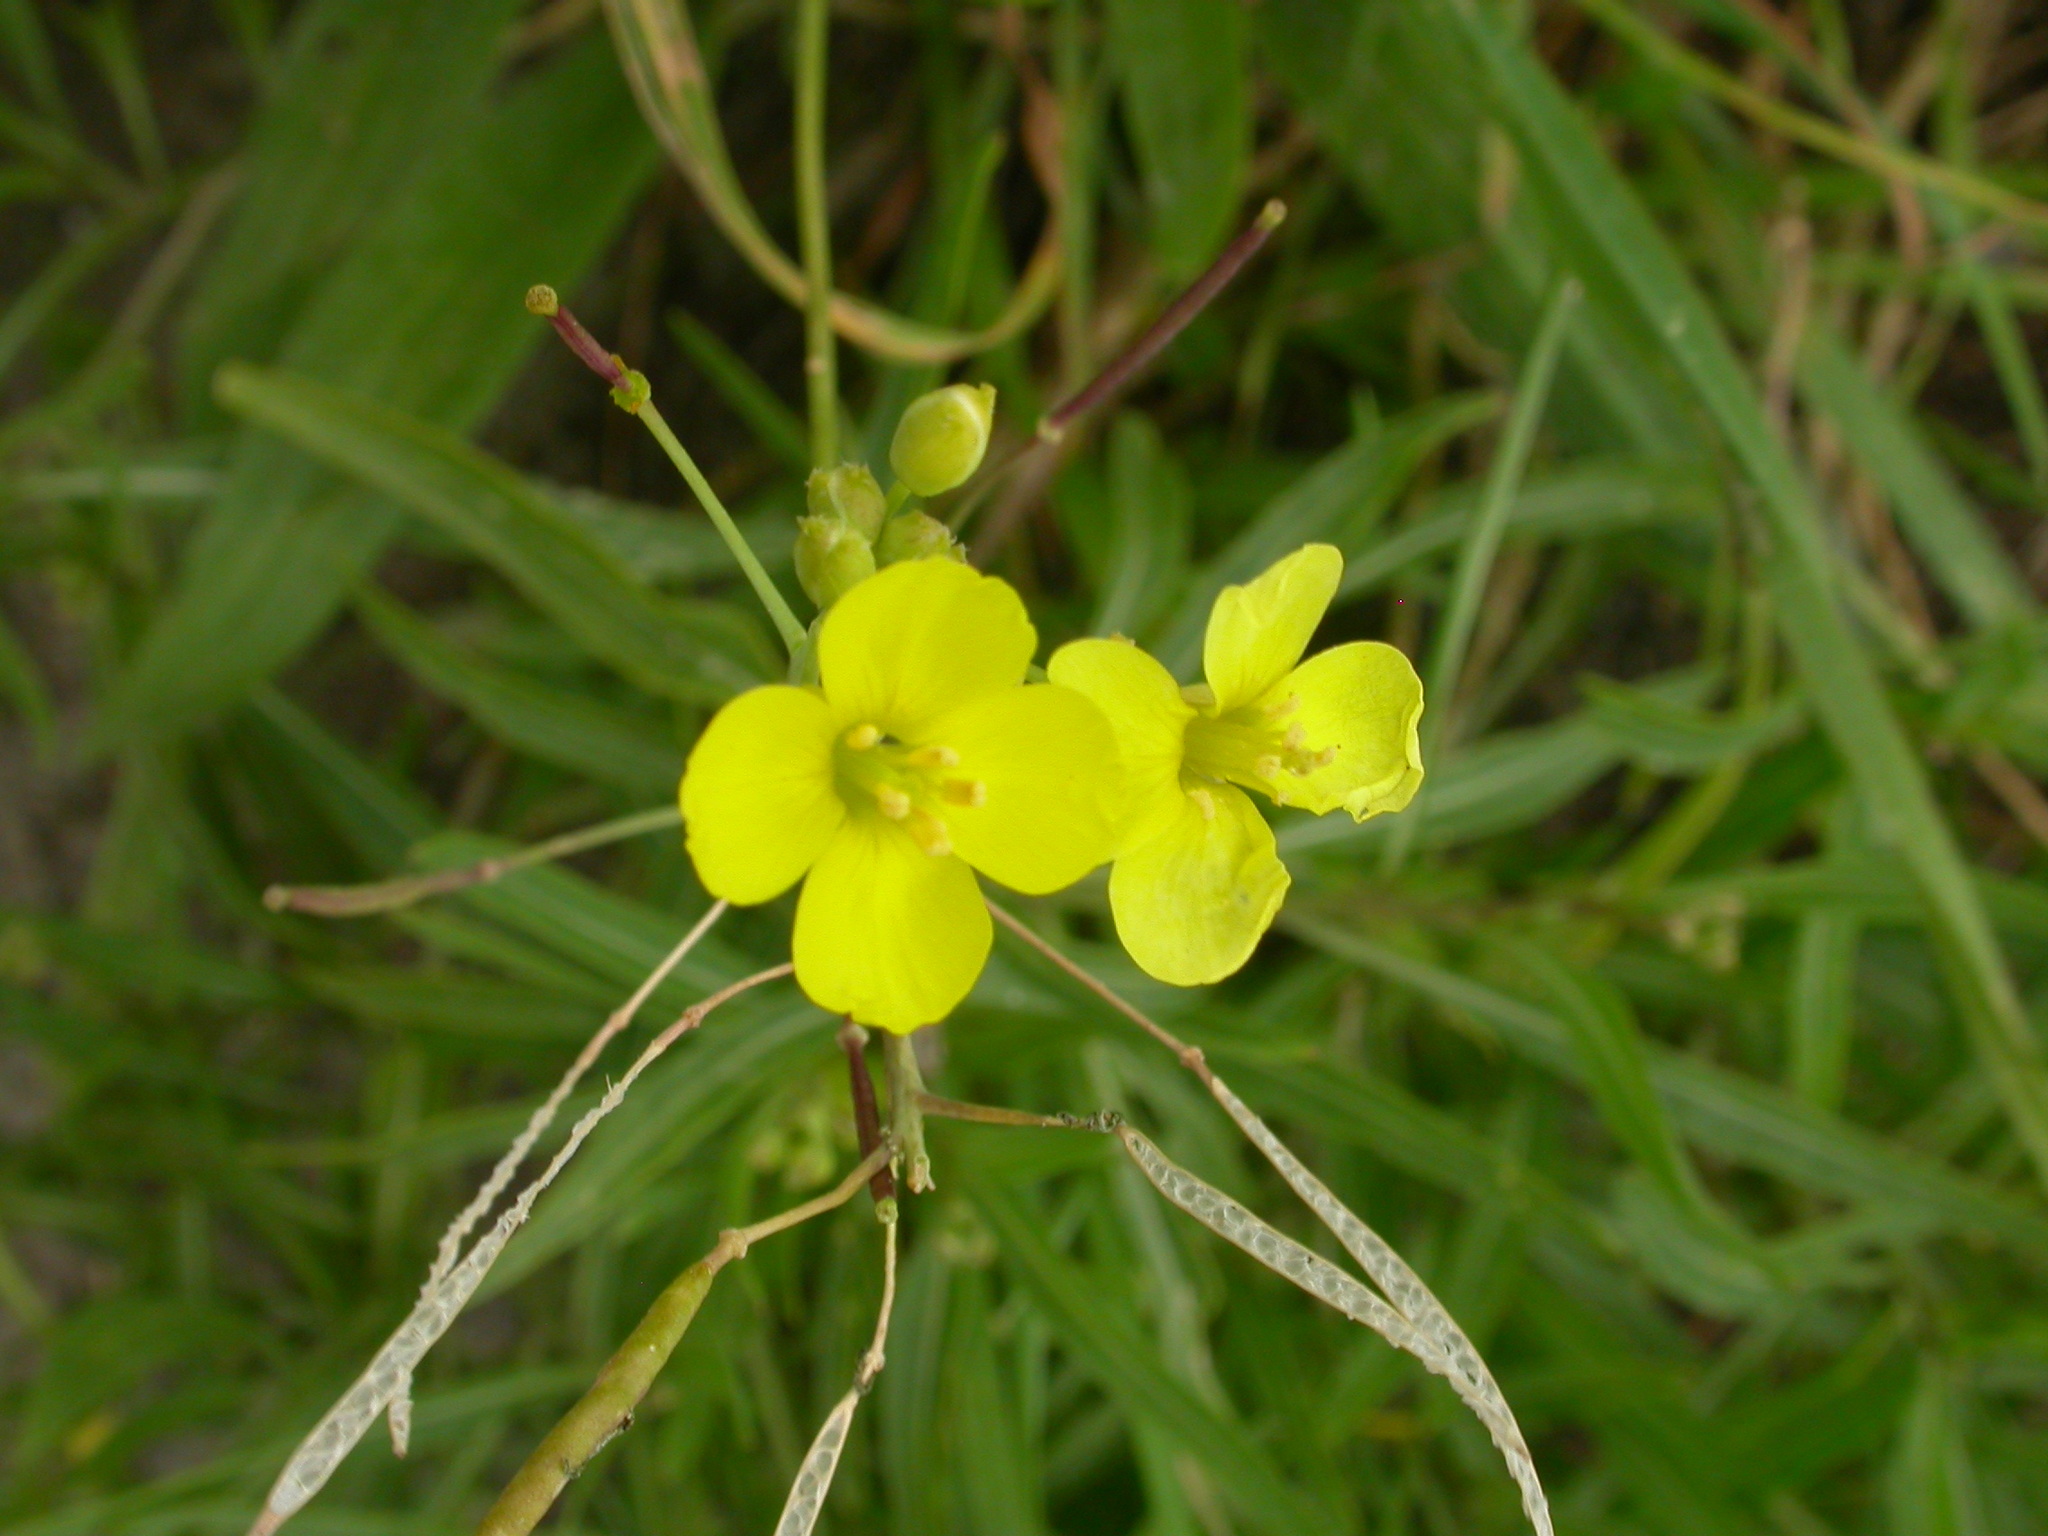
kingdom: Plantae
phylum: Tracheophyta
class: Magnoliopsida
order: Brassicales
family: Brassicaceae
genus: Diplotaxis
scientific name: Diplotaxis tenuifolia
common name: Perennial wall-rocket
